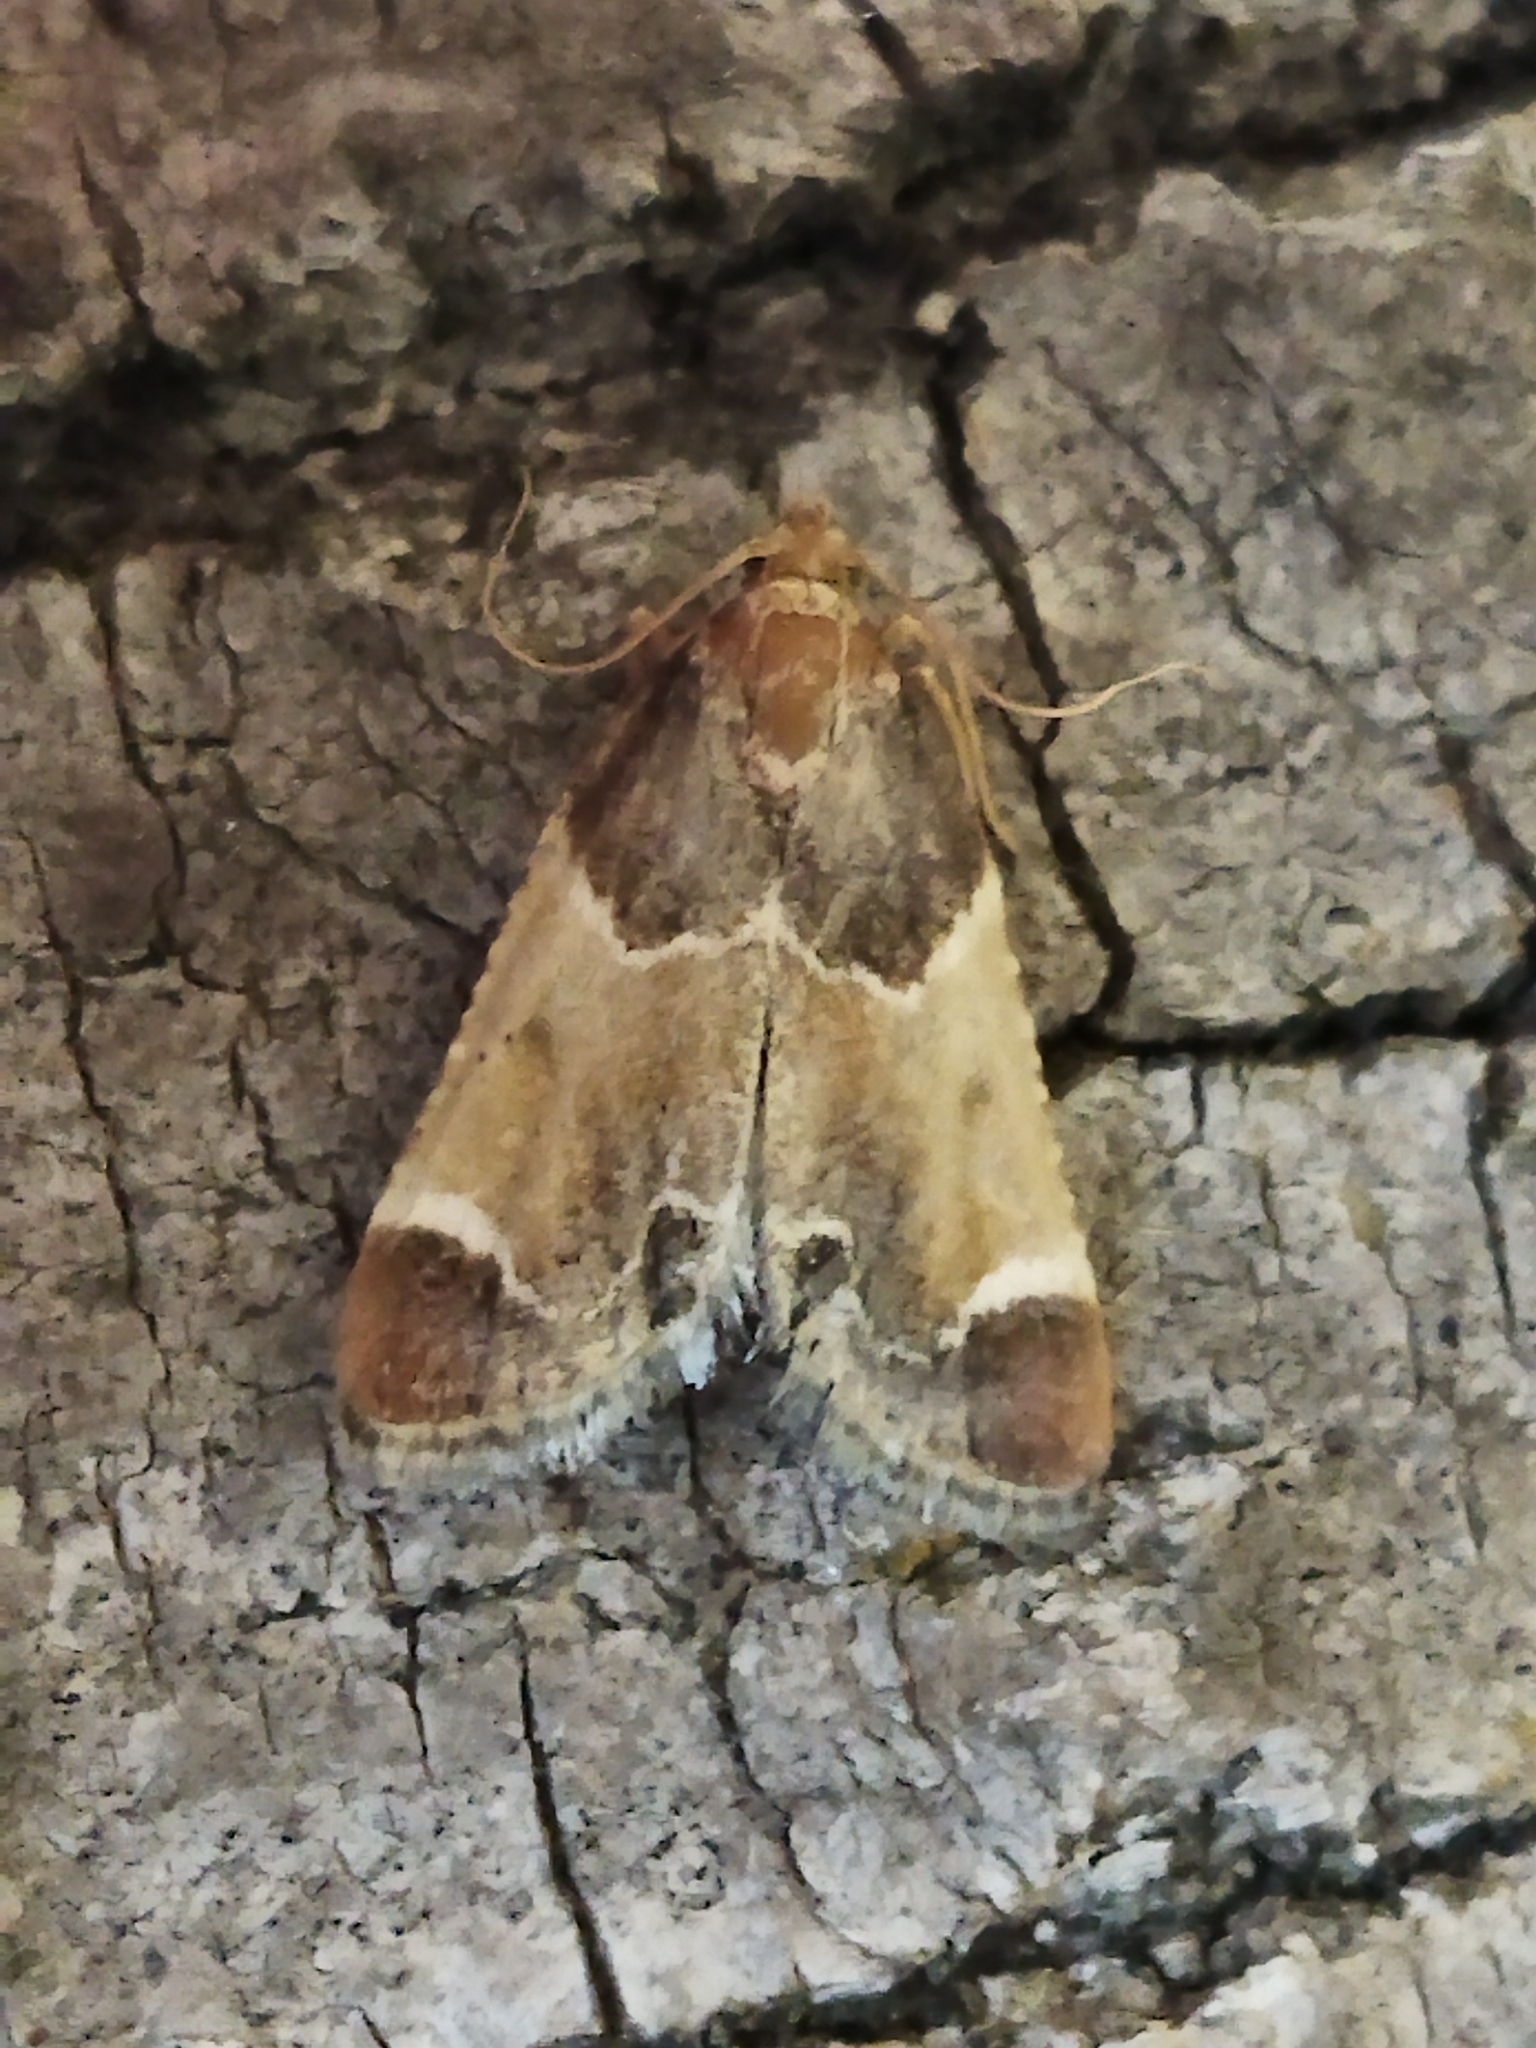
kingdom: Animalia
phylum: Arthropoda
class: Insecta
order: Lepidoptera
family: Pyralidae
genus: Pyralis
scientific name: Pyralis farinalis
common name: Meal moth
